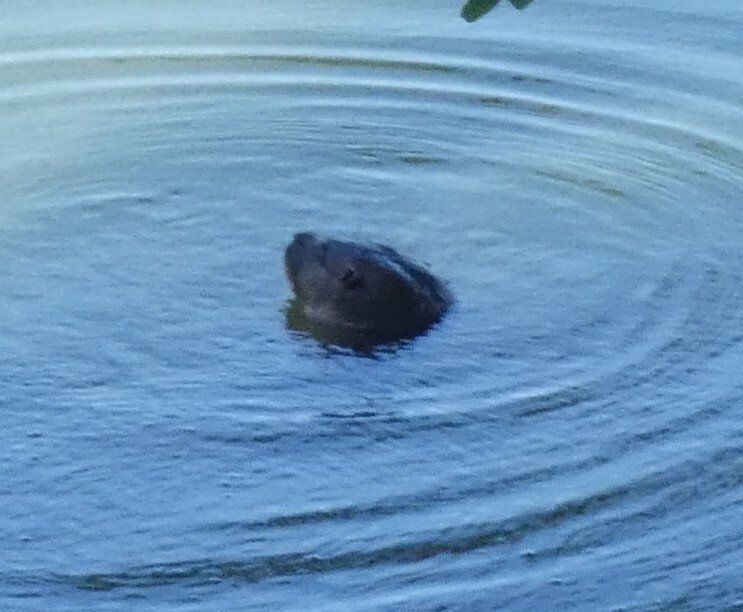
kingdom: Animalia
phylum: Chordata
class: Mammalia
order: Carnivora
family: Mustelidae
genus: Lontra
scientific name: Lontra longicaudis
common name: Neotropical otter
